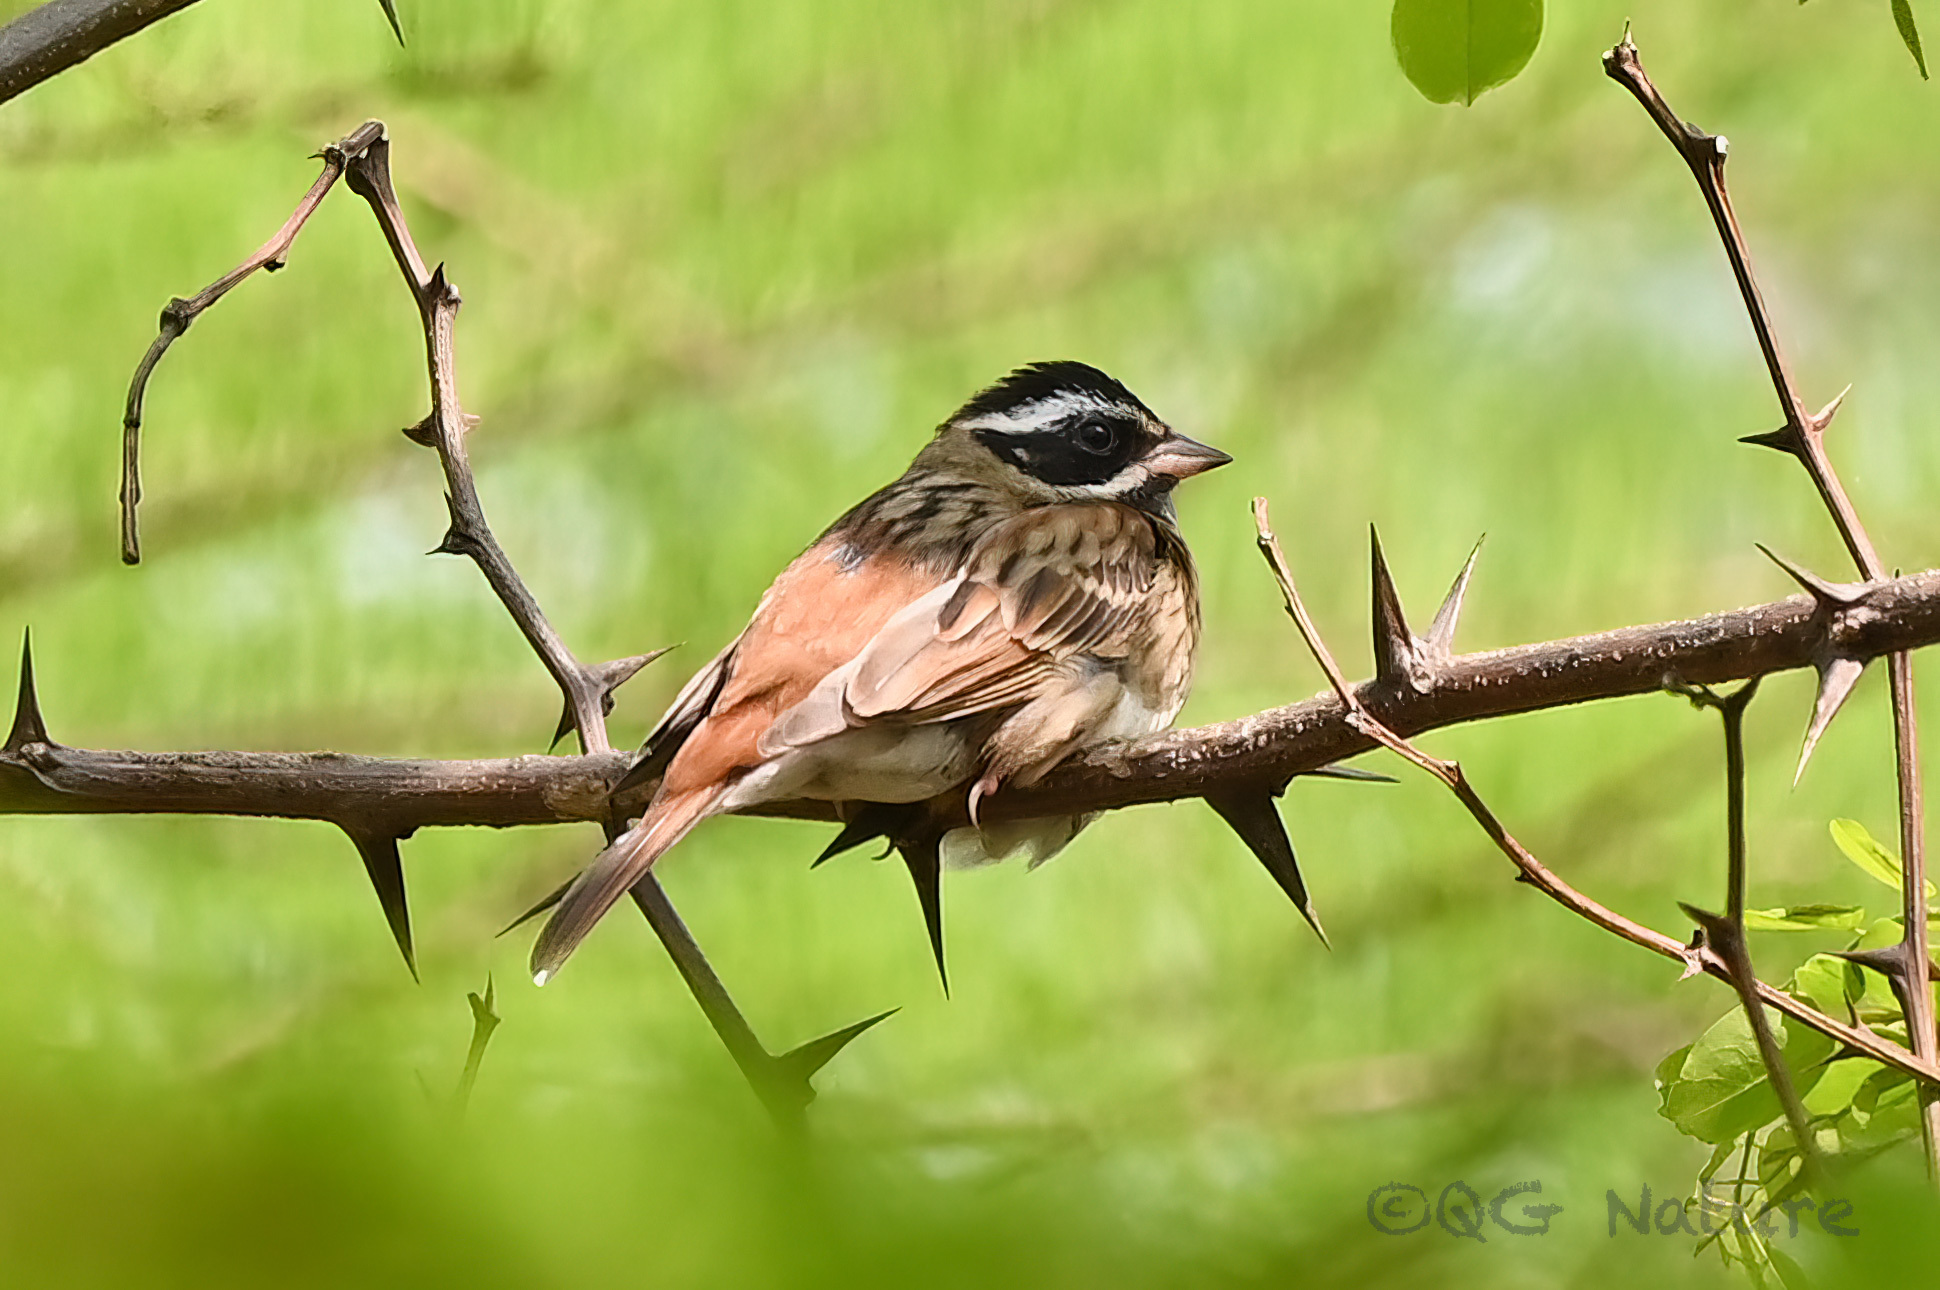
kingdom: Animalia
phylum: Chordata
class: Aves
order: Passeriformes
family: Emberizidae
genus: Emberiza
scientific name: Emberiza tristrami
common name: Tristram's bunting
